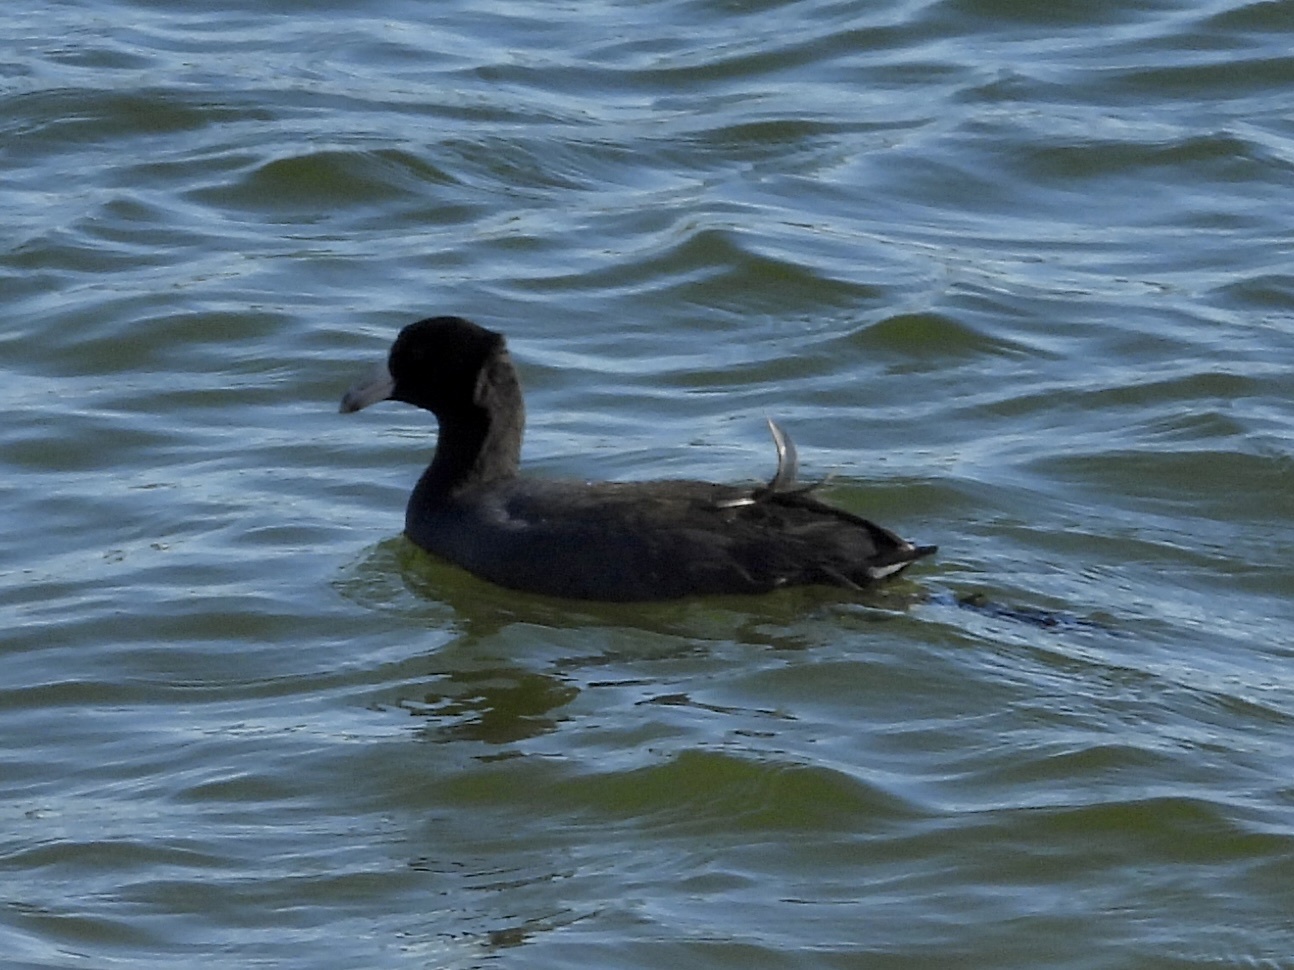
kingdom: Animalia
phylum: Chordata
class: Aves
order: Gruiformes
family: Rallidae
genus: Fulica
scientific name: Fulica americana
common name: American coot
